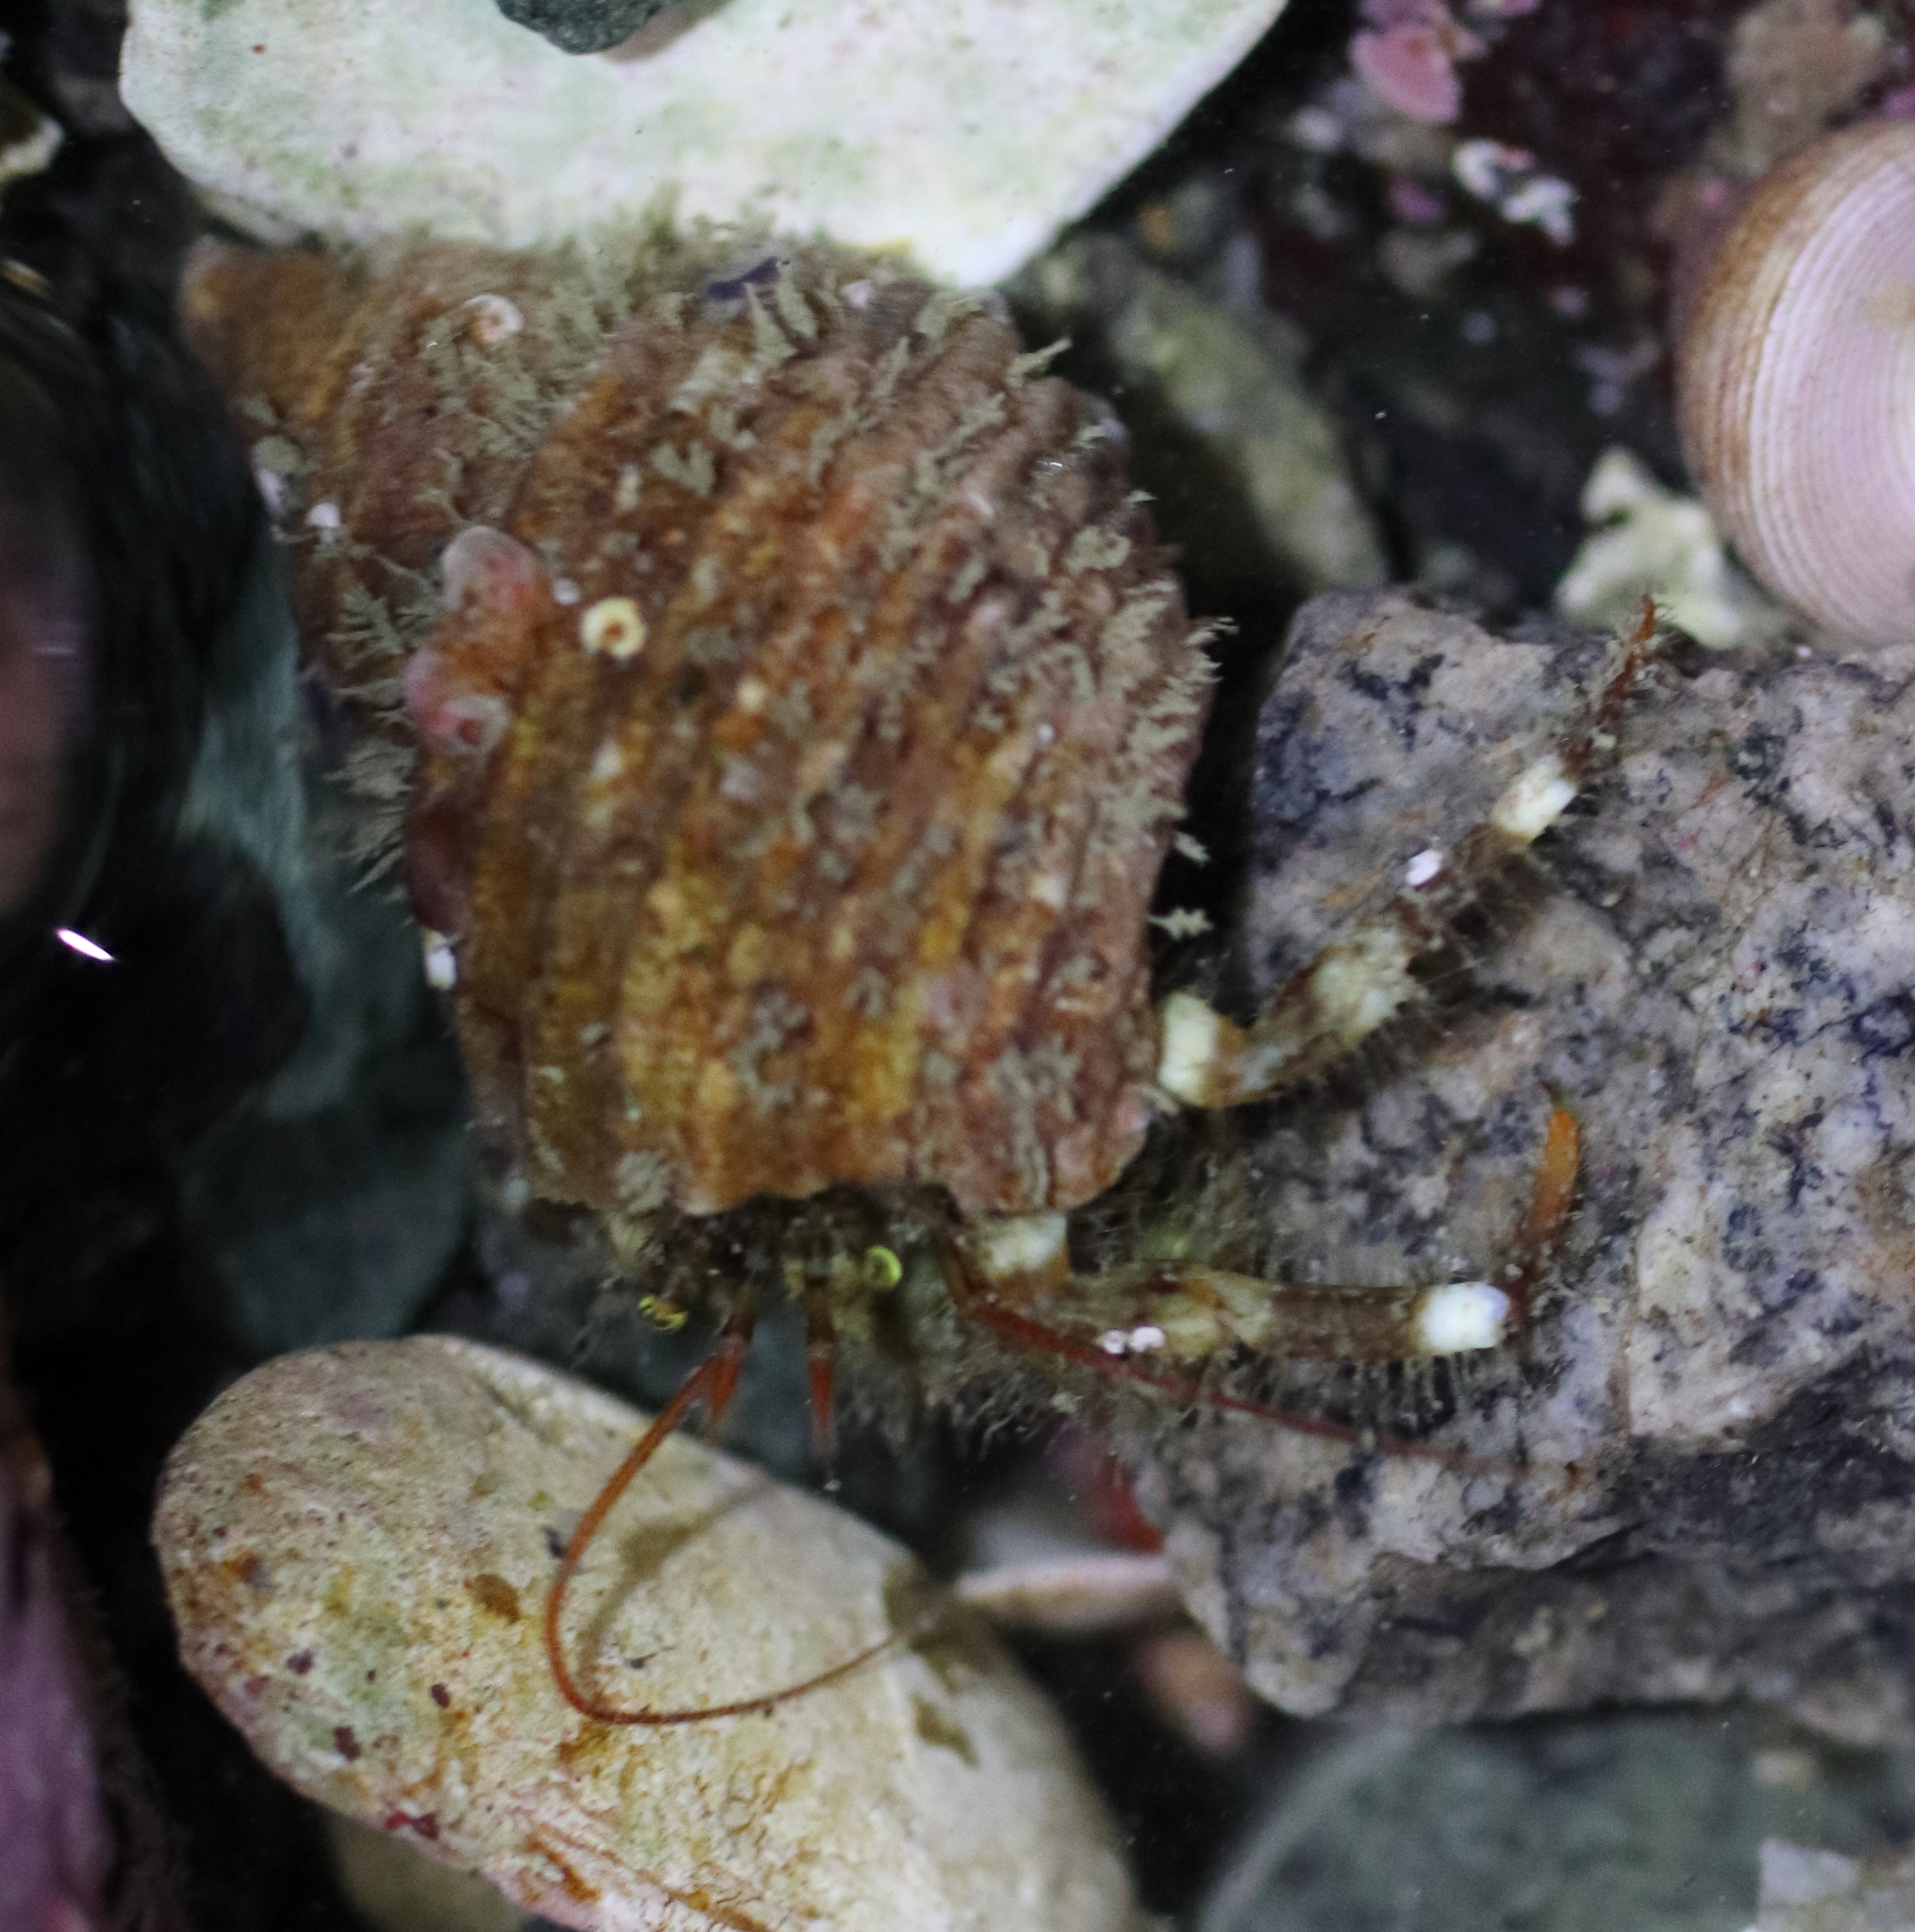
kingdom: Animalia
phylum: Arthropoda
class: Malacostraca
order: Decapoda
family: Paguridae
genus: Pagurus
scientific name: Pagurus caurinus
